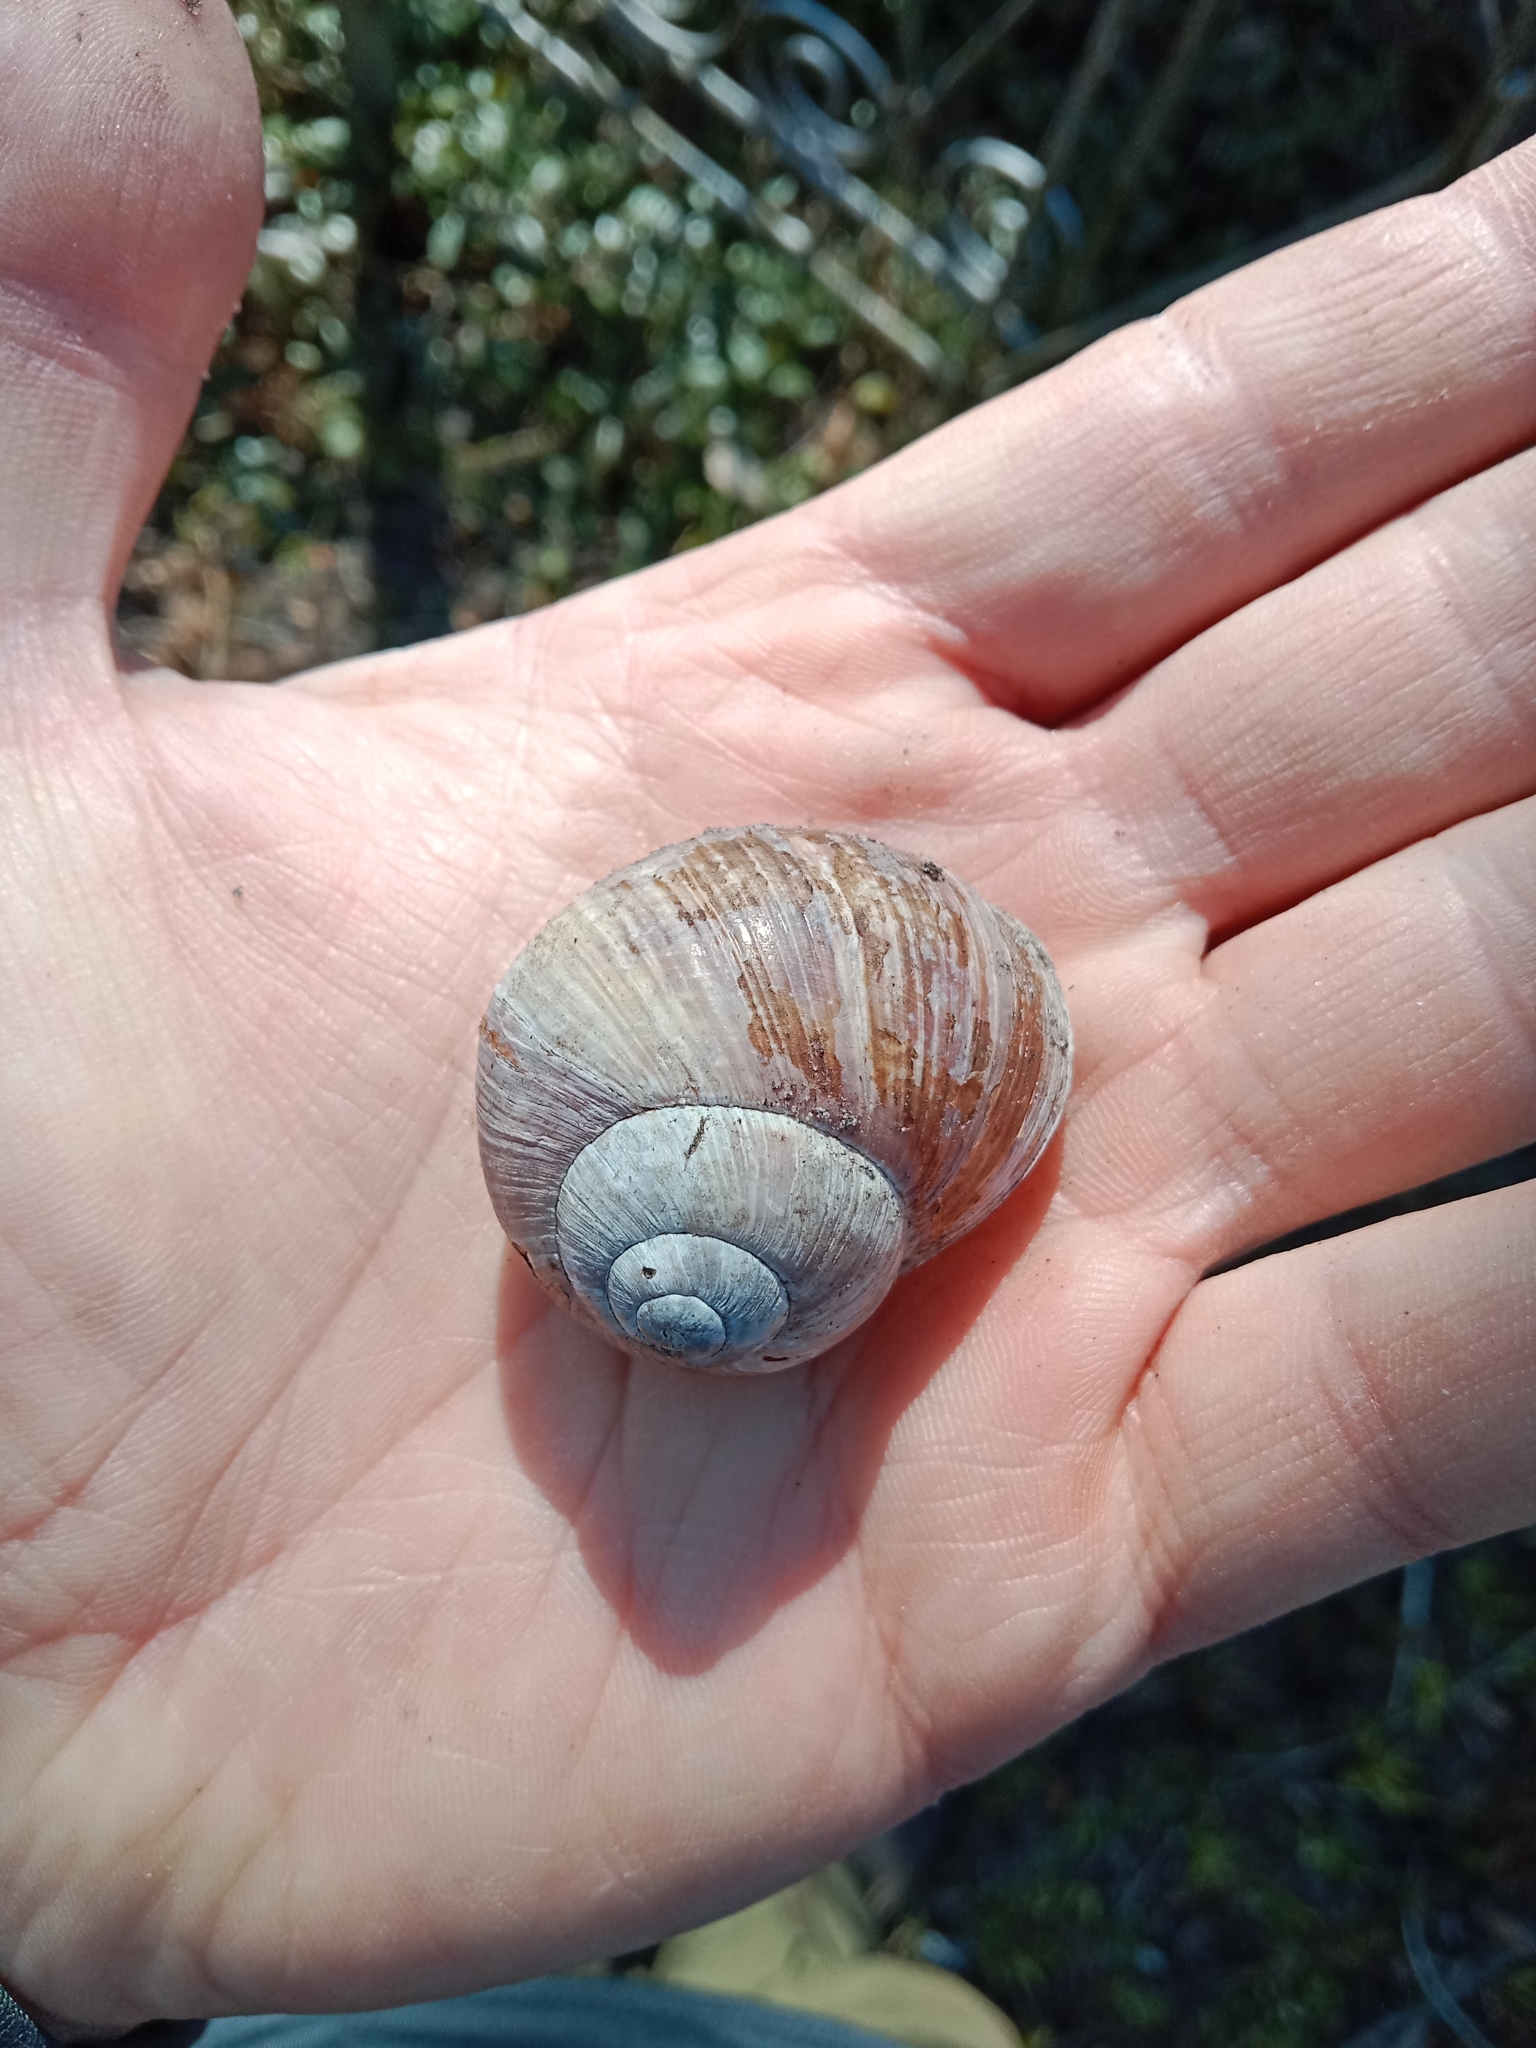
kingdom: Animalia
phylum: Mollusca
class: Gastropoda
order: Stylommatophora
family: Helicidae
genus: Helix
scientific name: Helix pomatia
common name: Roman snail
